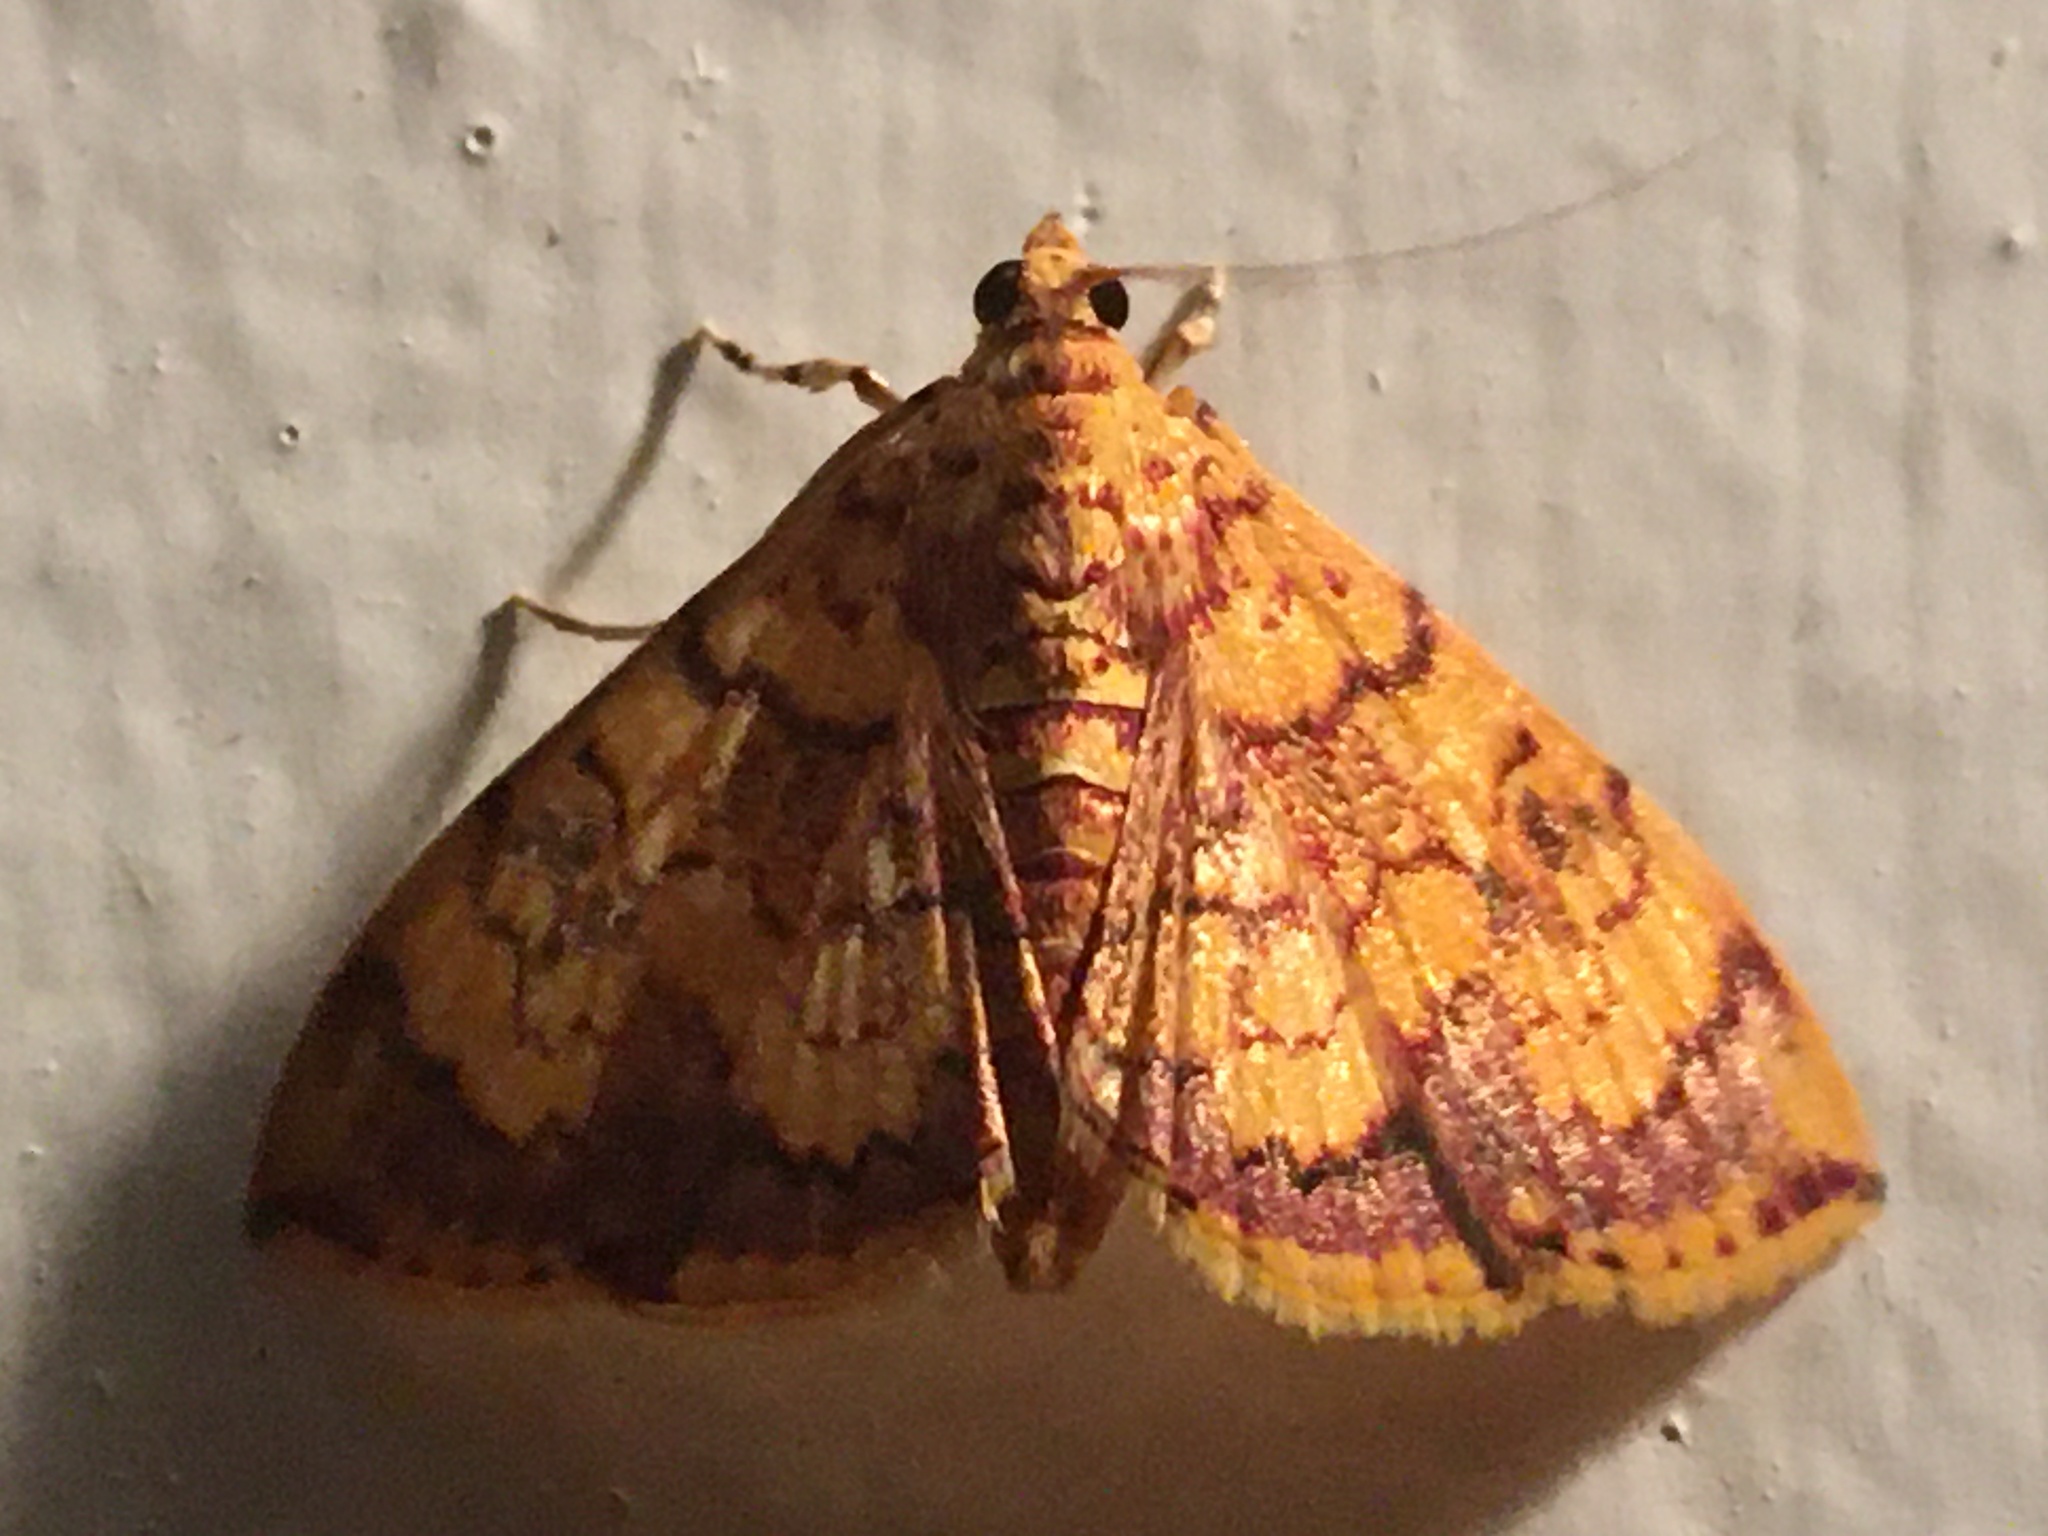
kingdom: Animalia
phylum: Arthropoda
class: Insecta
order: Lepidoptera
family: Crambidae
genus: Portentomorpha
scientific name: Portentomorpha xanthialis
